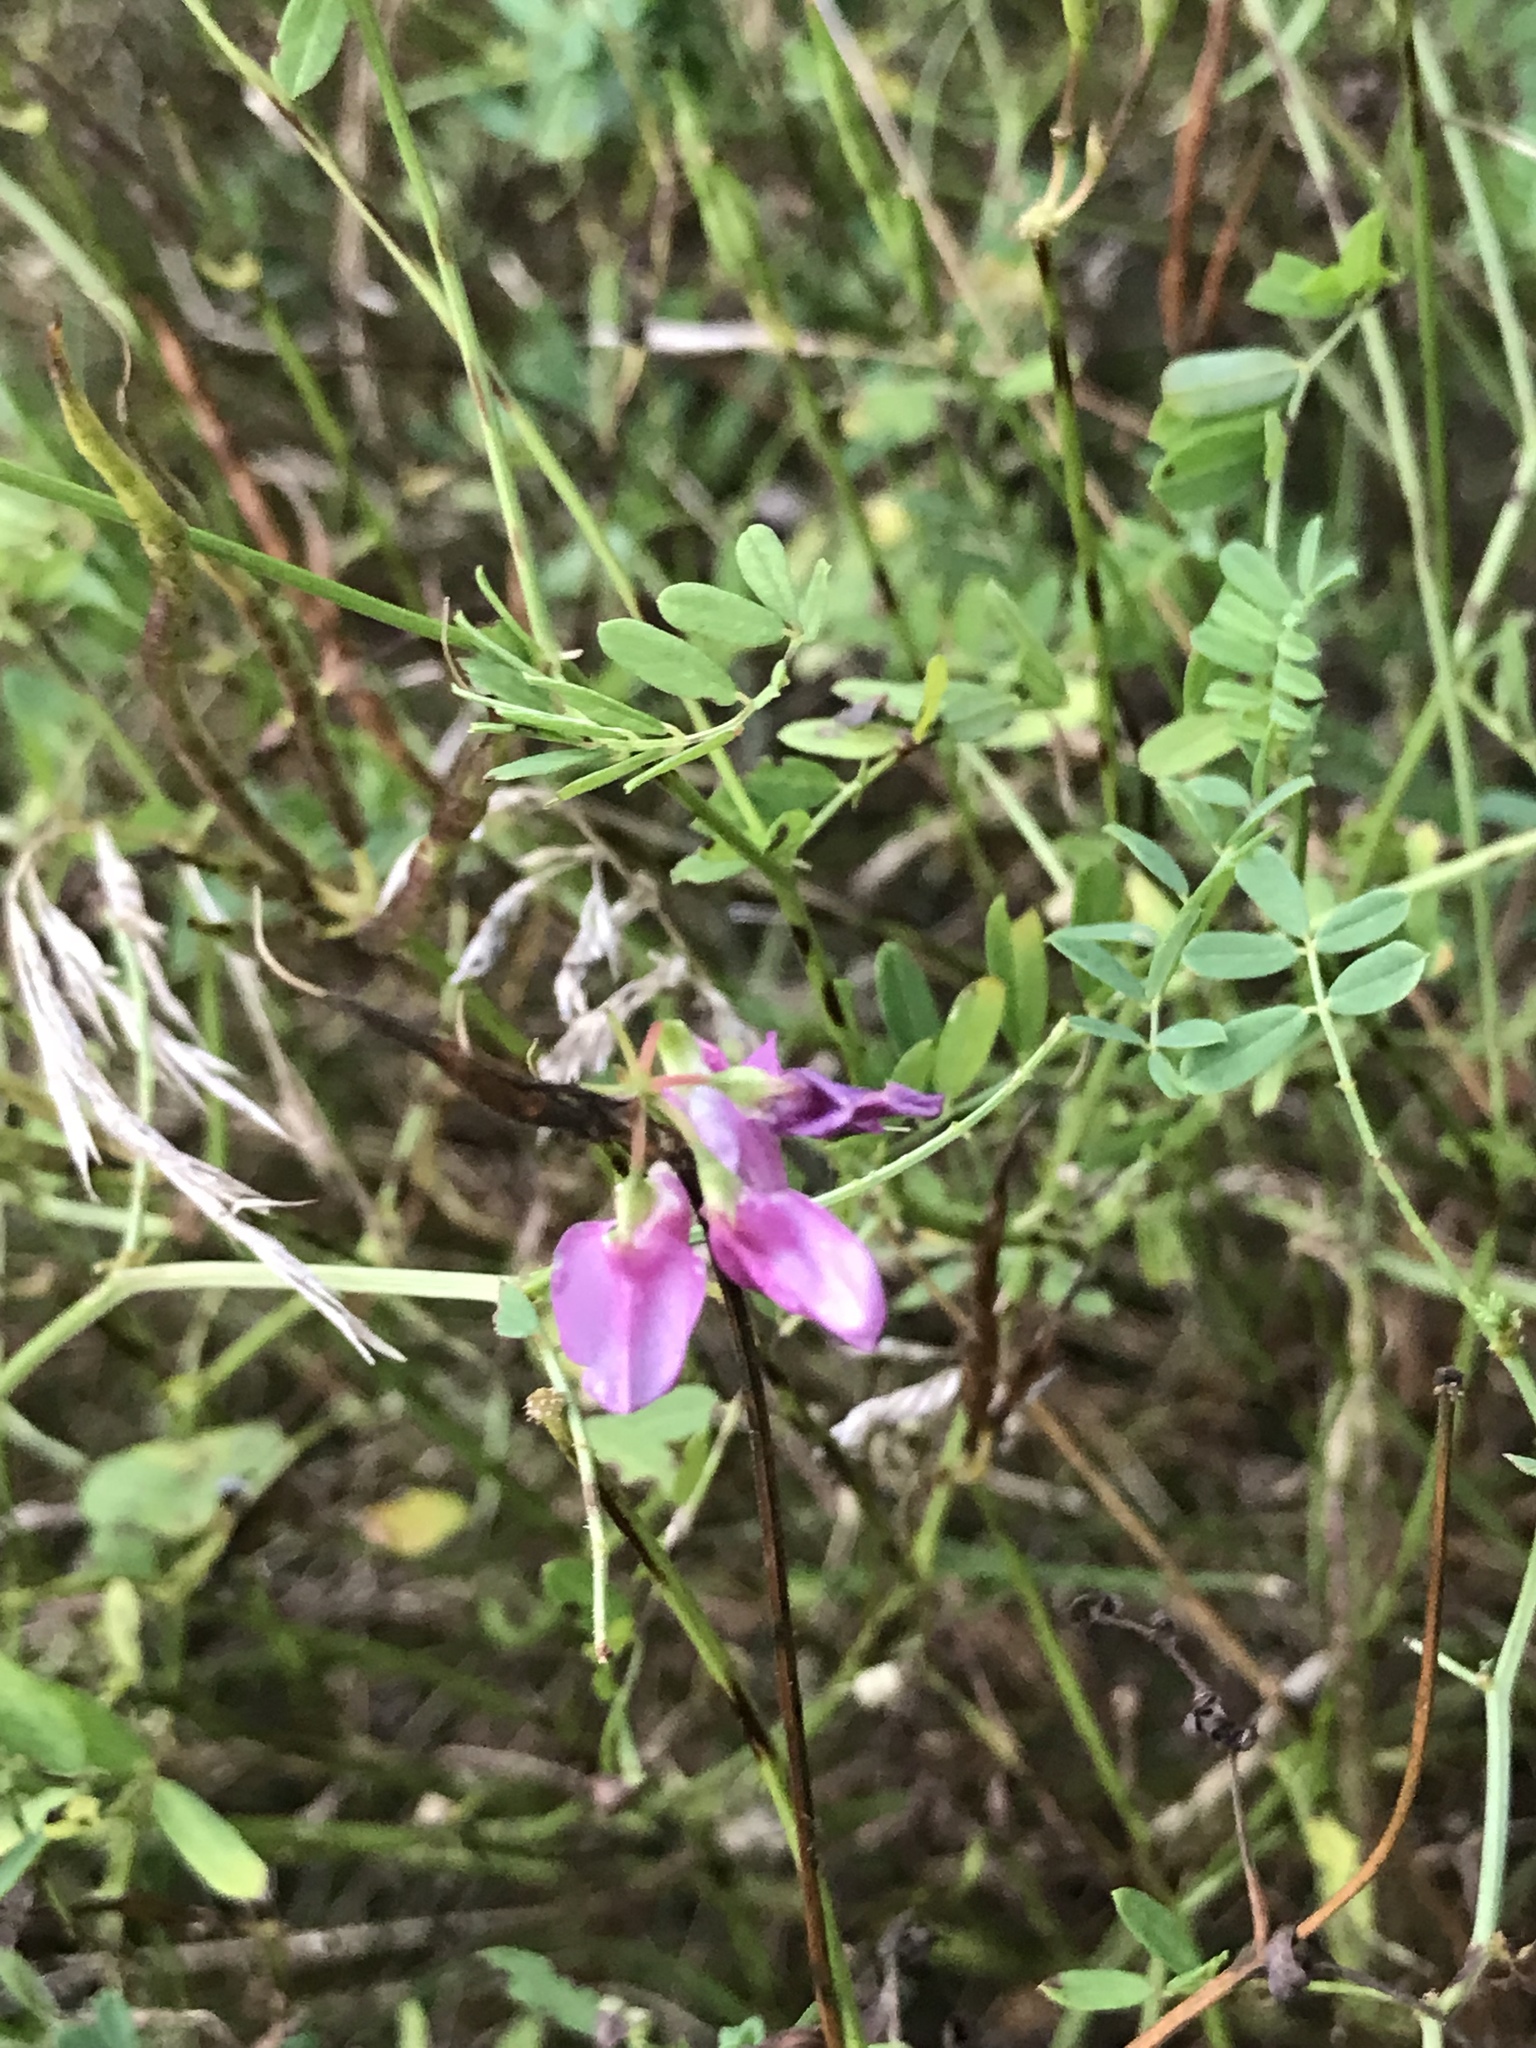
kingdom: Plantae
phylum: Tracheophyta
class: Magnoliopsida
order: Fabales
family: Fabaceae
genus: Coronilla
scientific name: Coronilla varia
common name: Crownvetch
